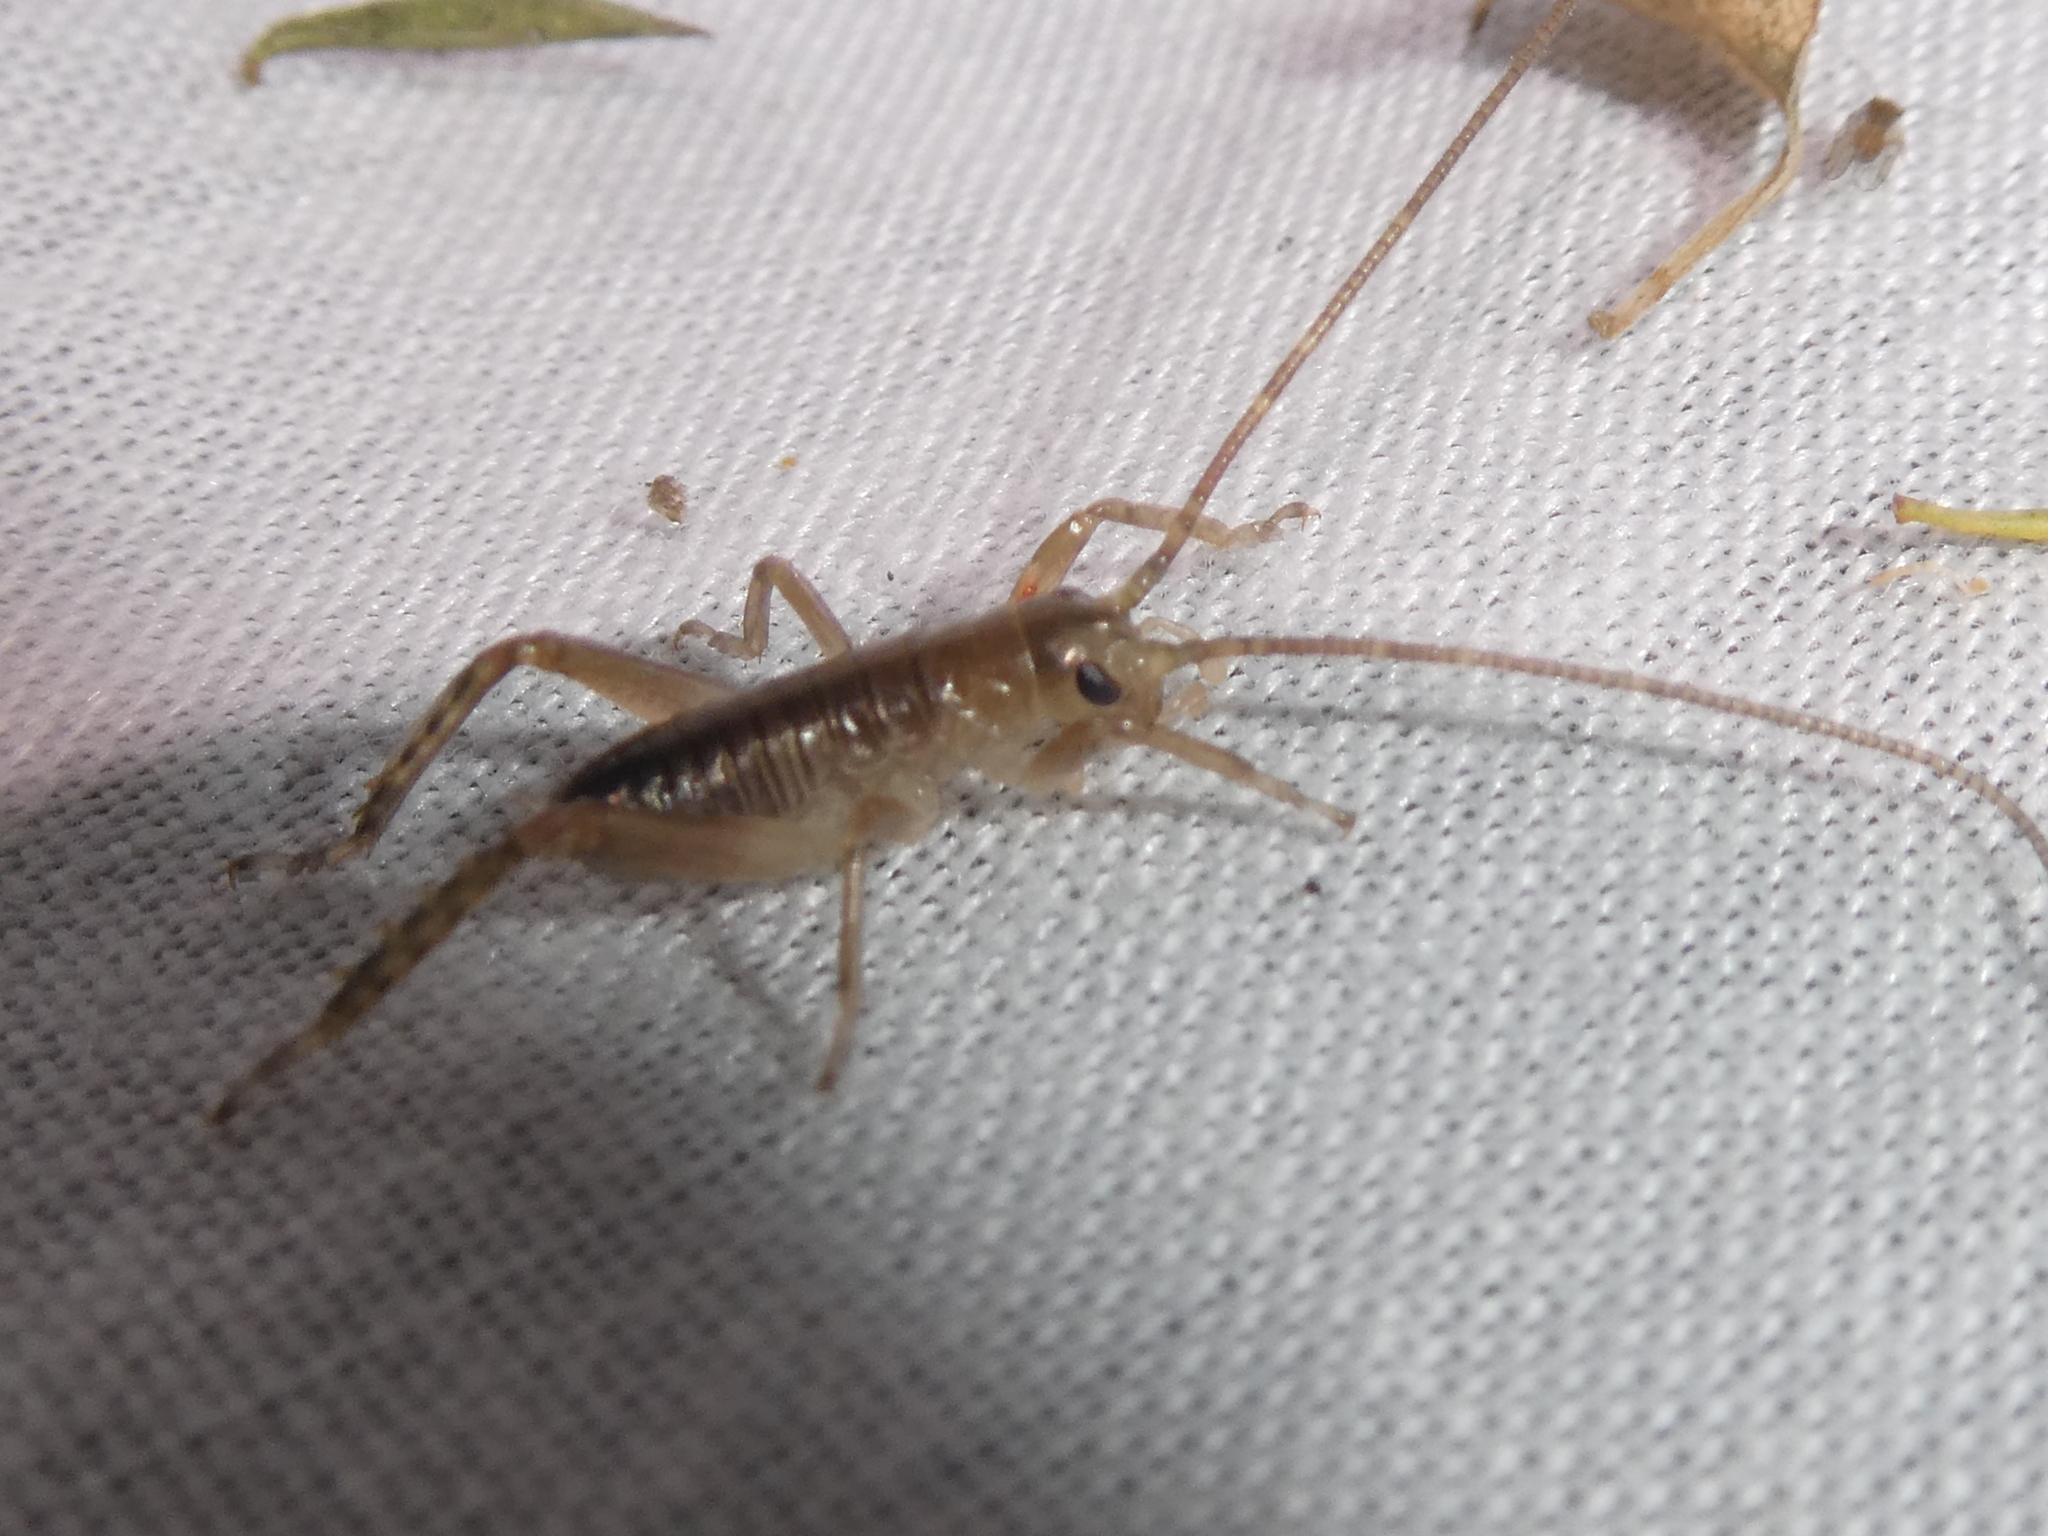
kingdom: Animalia
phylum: Arthropoda
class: Insecta
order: Orthoptera
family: Anostostomatidae
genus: Hemideina
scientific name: Hemideina crassidens
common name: Wellington tree weta
